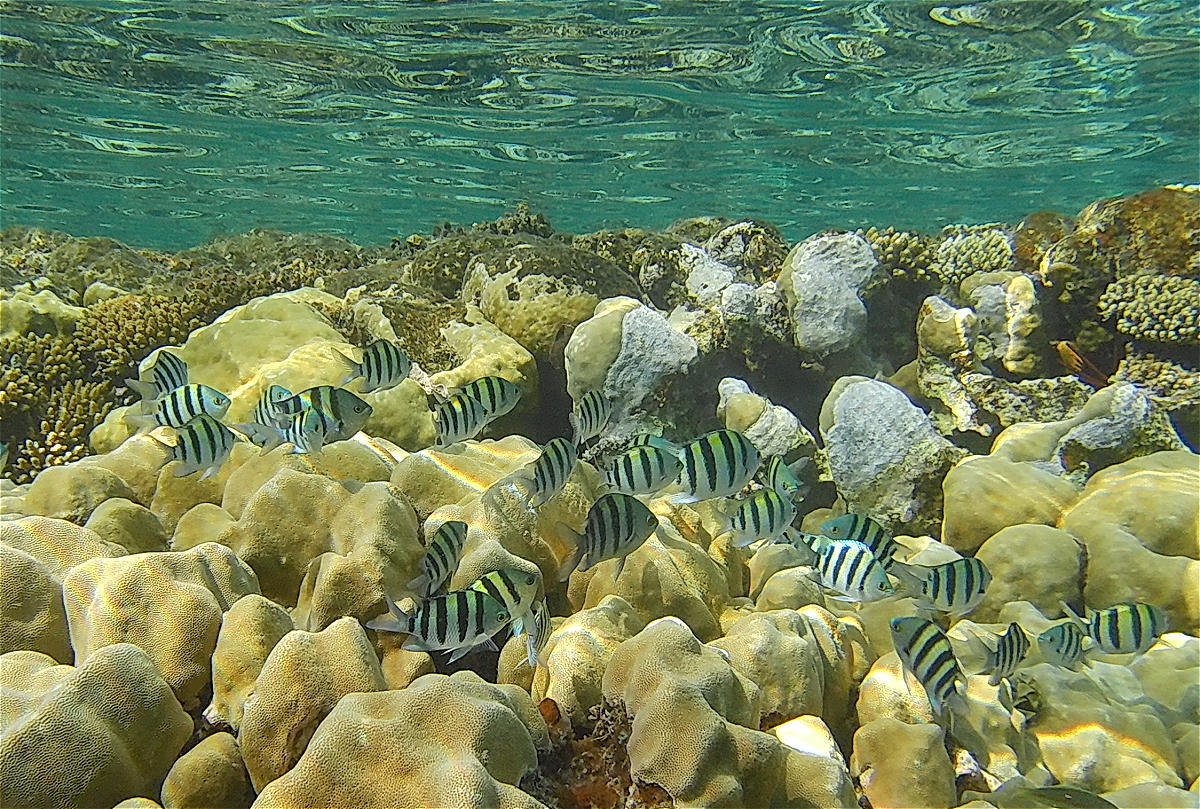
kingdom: Animalia
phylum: Chordata
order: Perciformes
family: Pomacentridae
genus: Abudefduf
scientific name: Abudefduf vaigiensis
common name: Indo-pacific sergeant
